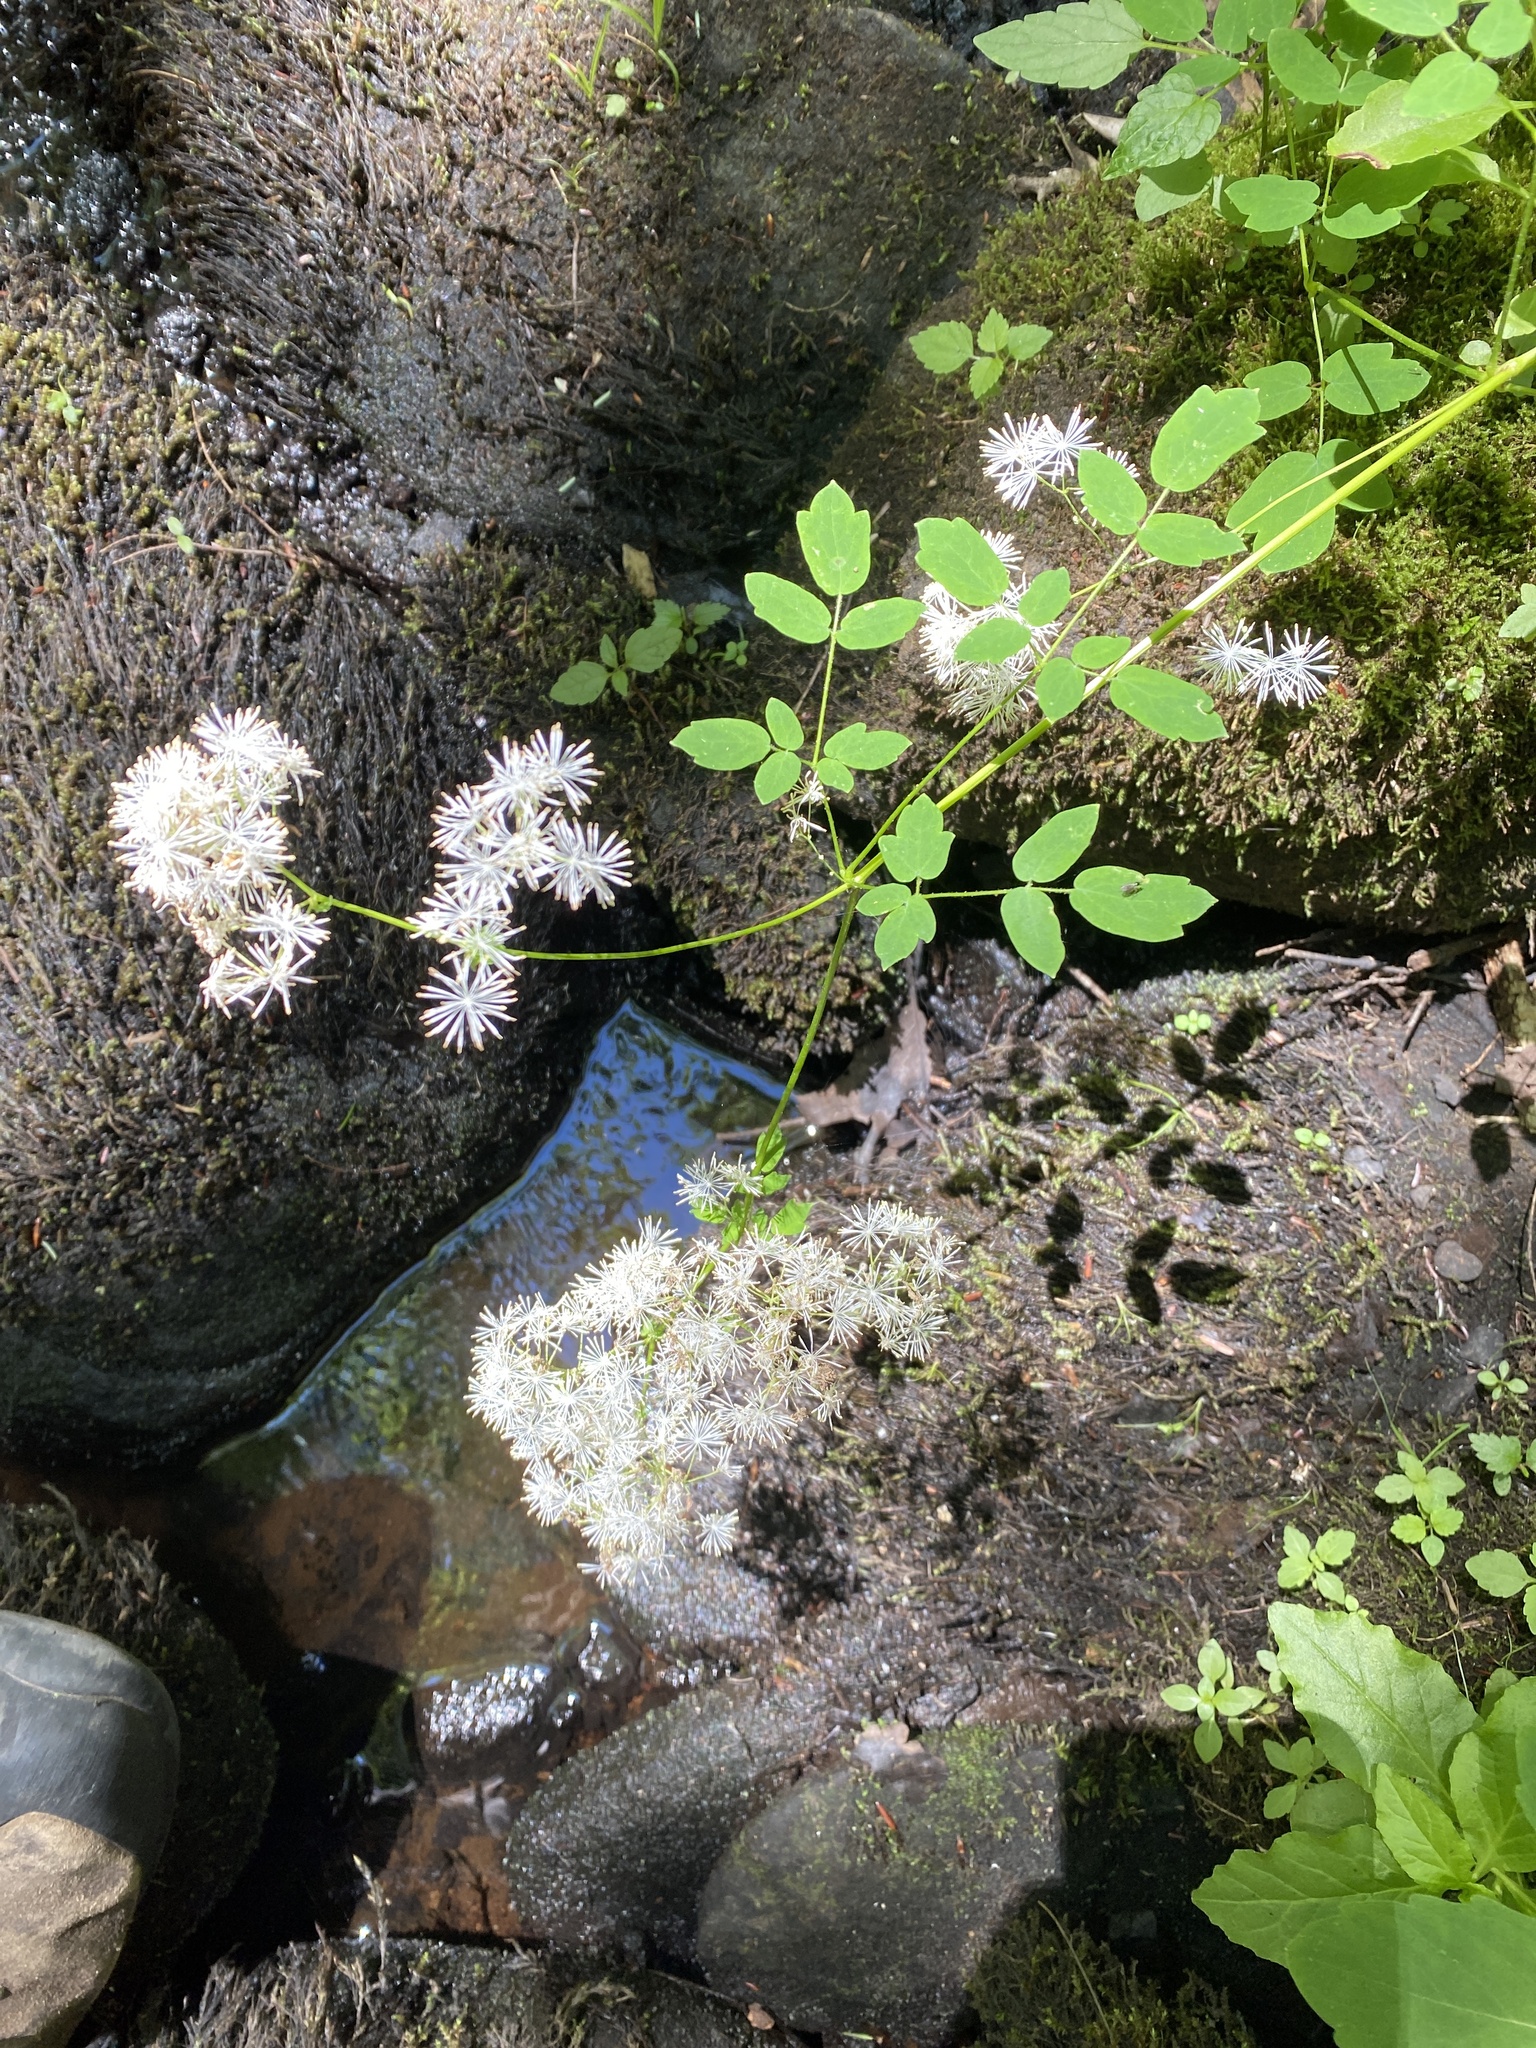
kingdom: Plantae
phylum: Tracheophyta
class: Magnoliopsida
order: Ranunculales
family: Ranunculaceae
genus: Thalictrum
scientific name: Thalictrum pubescens
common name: King-of-the-meadow
